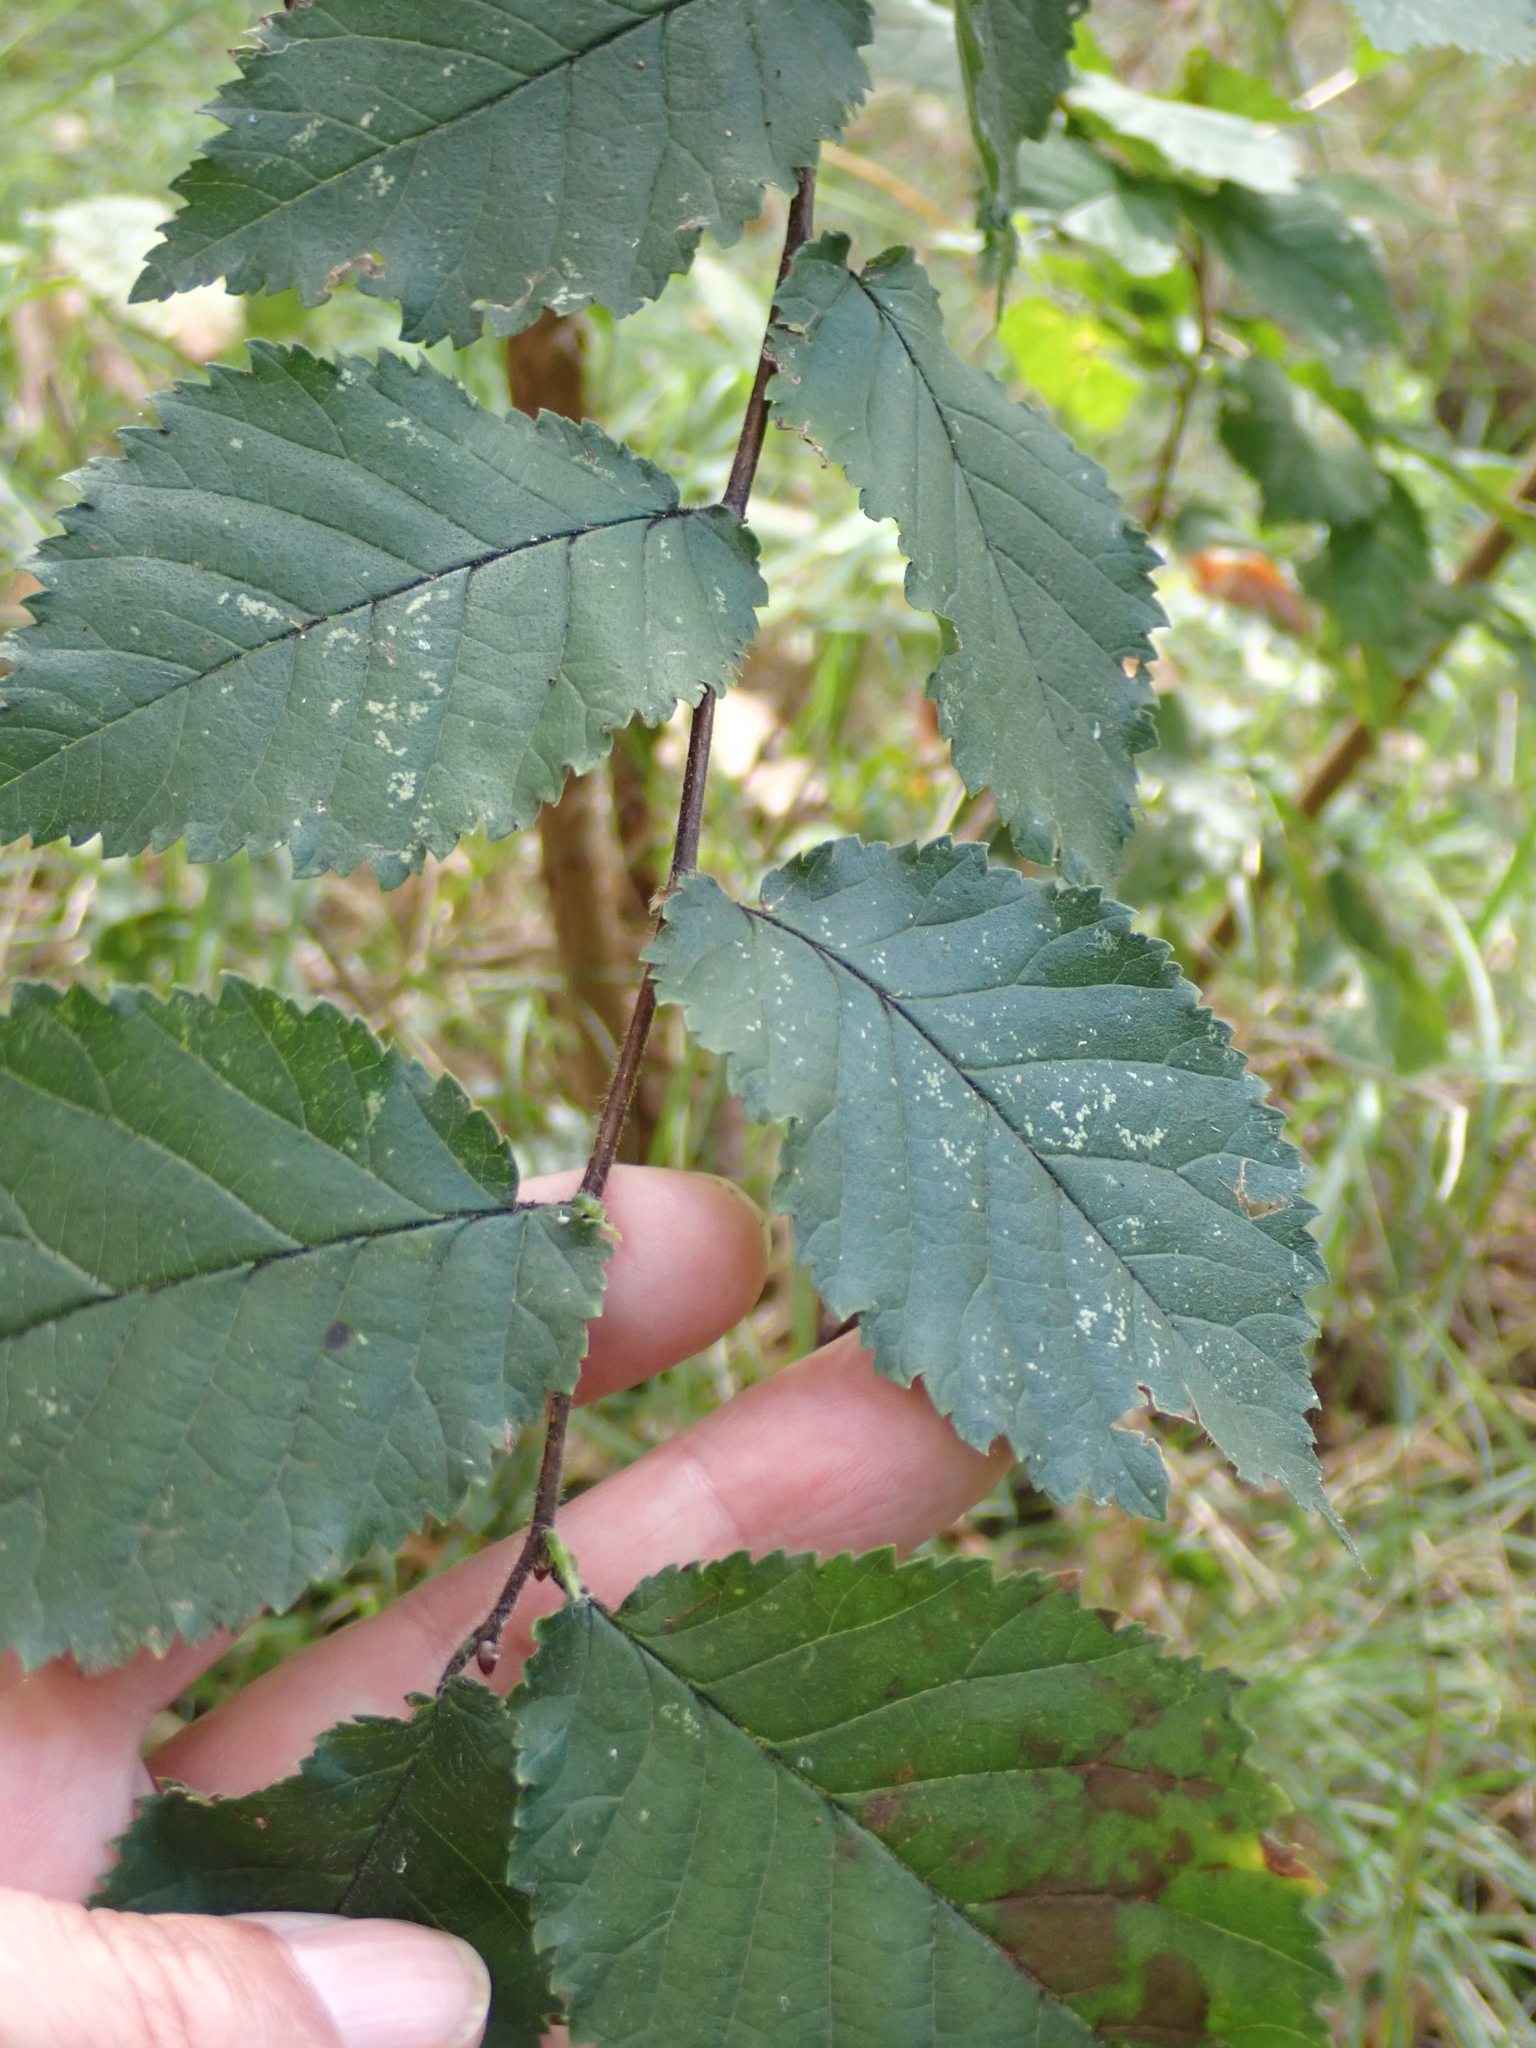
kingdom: Plantae
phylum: Tracheophyta
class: Magnoliopsida
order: Rosales
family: Ulmaceae
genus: Ulmus
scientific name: Ulmus minor
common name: Small-leaved elm
